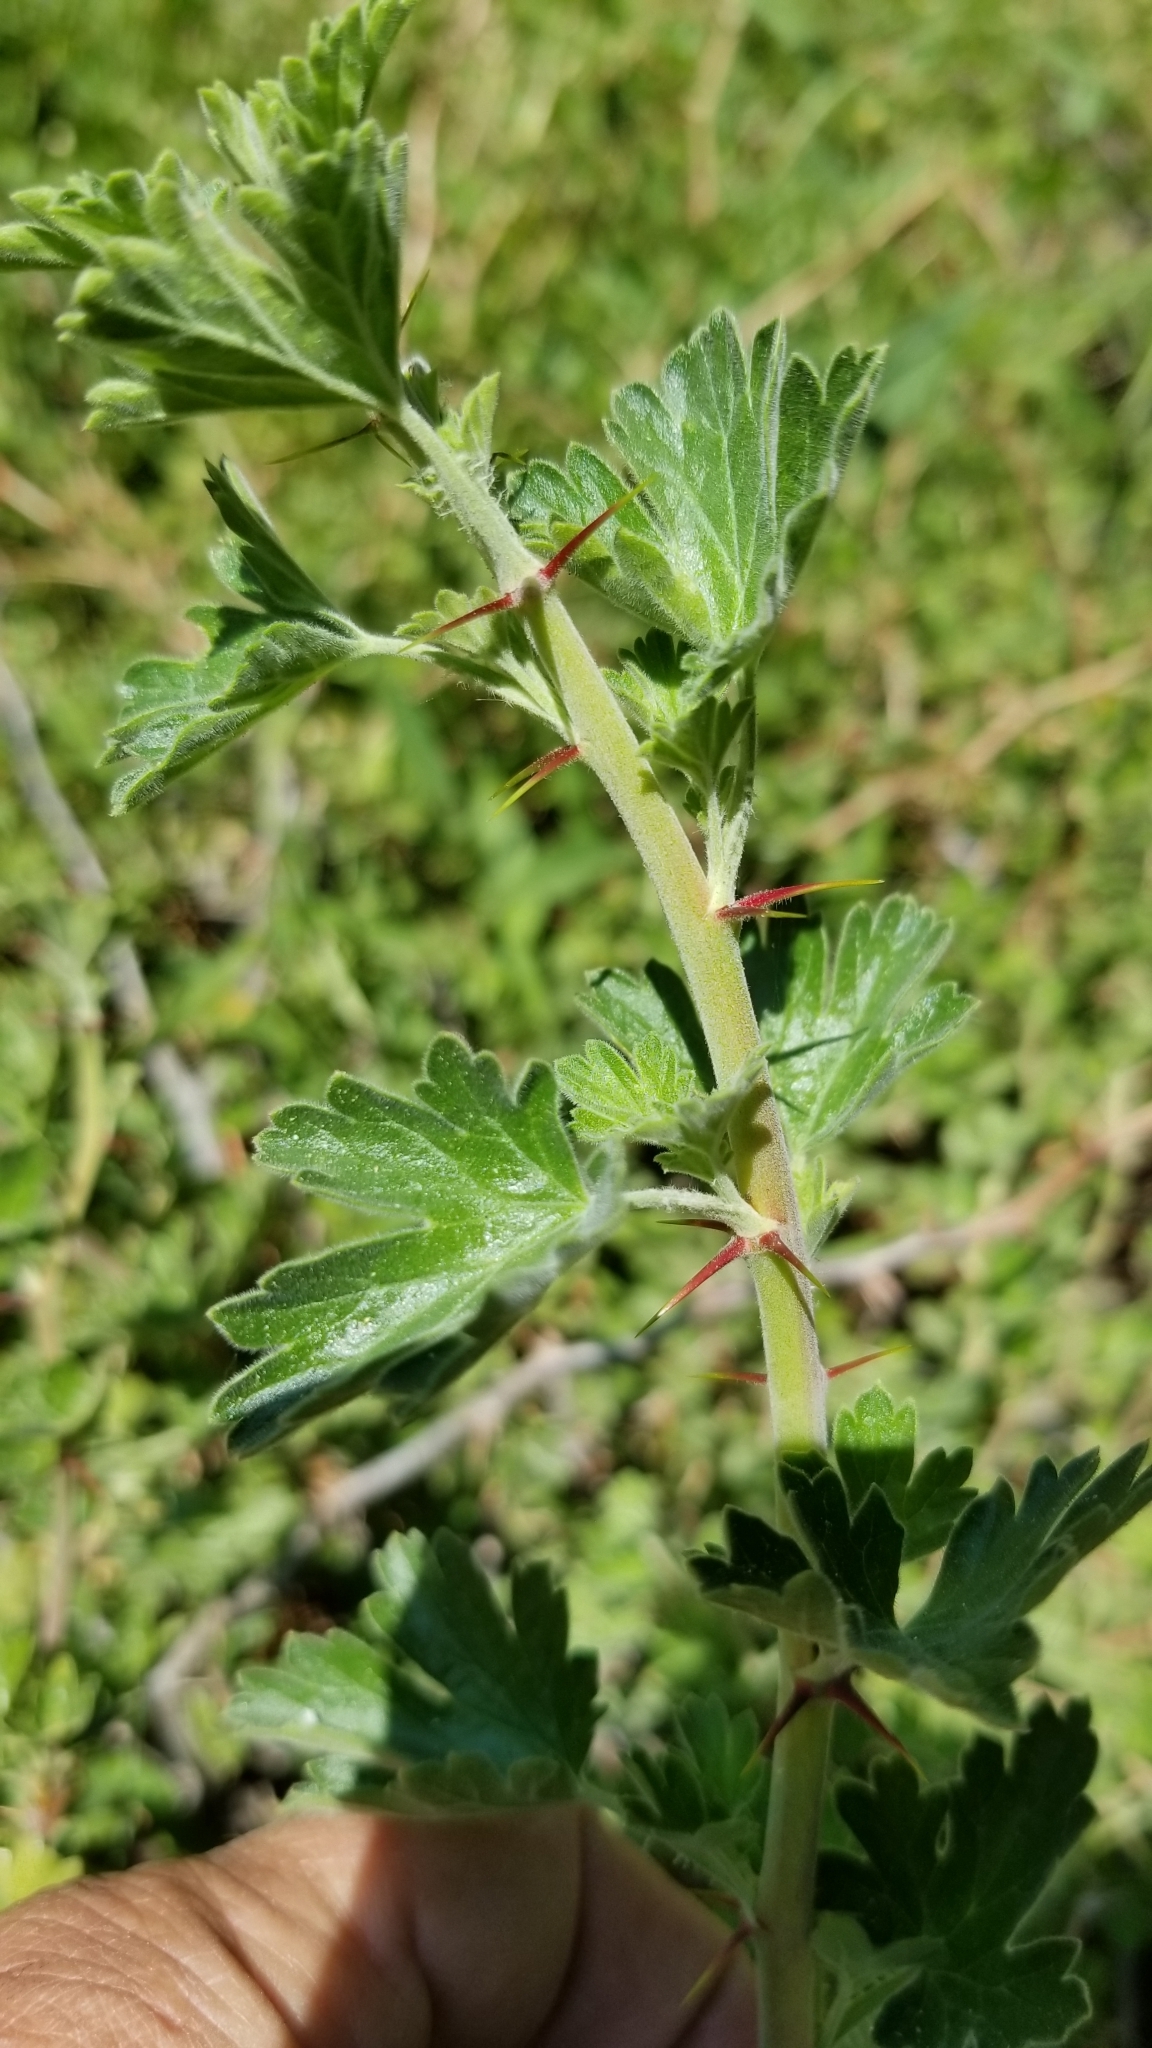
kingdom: Plantae
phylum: Tracheophyta
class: Magnoliopsida
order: Saxifragales
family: Grossulariaceae
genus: Ribes
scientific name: Ribes montigenum
